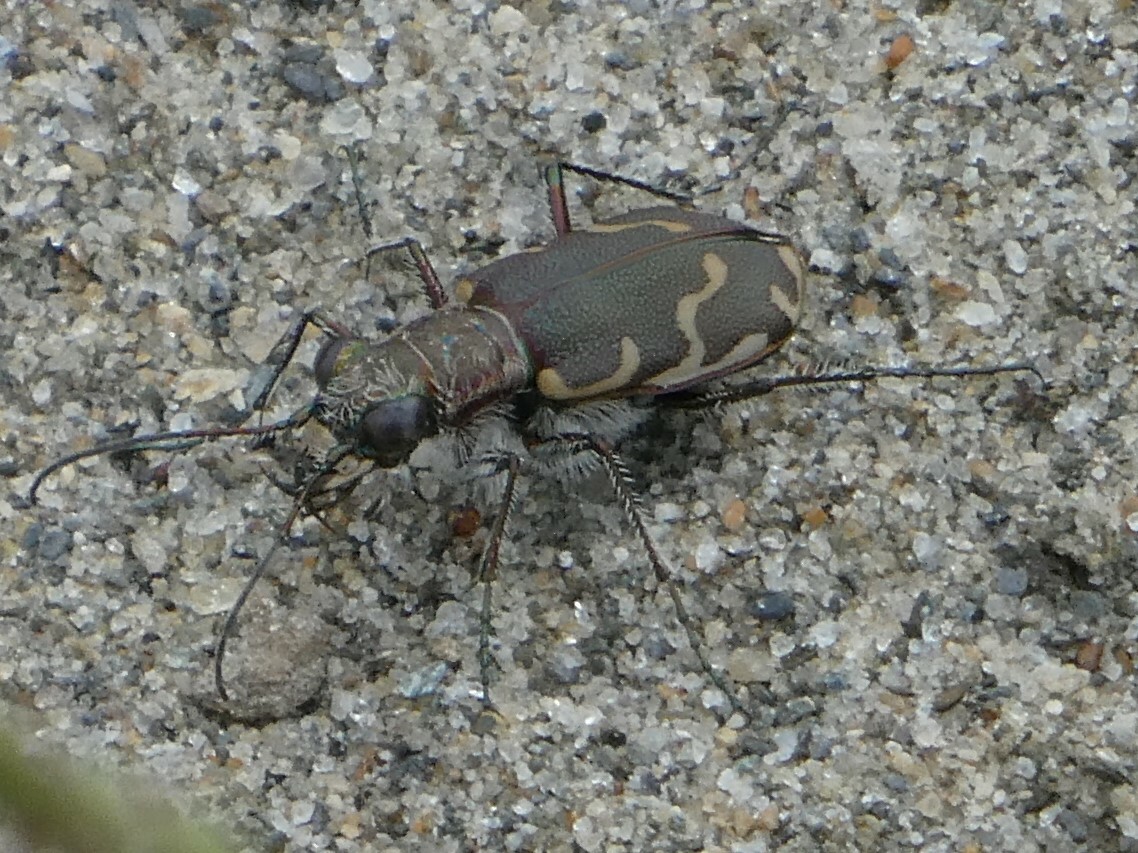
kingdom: Animalia
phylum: Arthropoda
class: Insecta
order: Coleoptera
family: Carabidae
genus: Cicindela
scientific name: Cicindela repanda
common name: Bronzed tiger beetle
